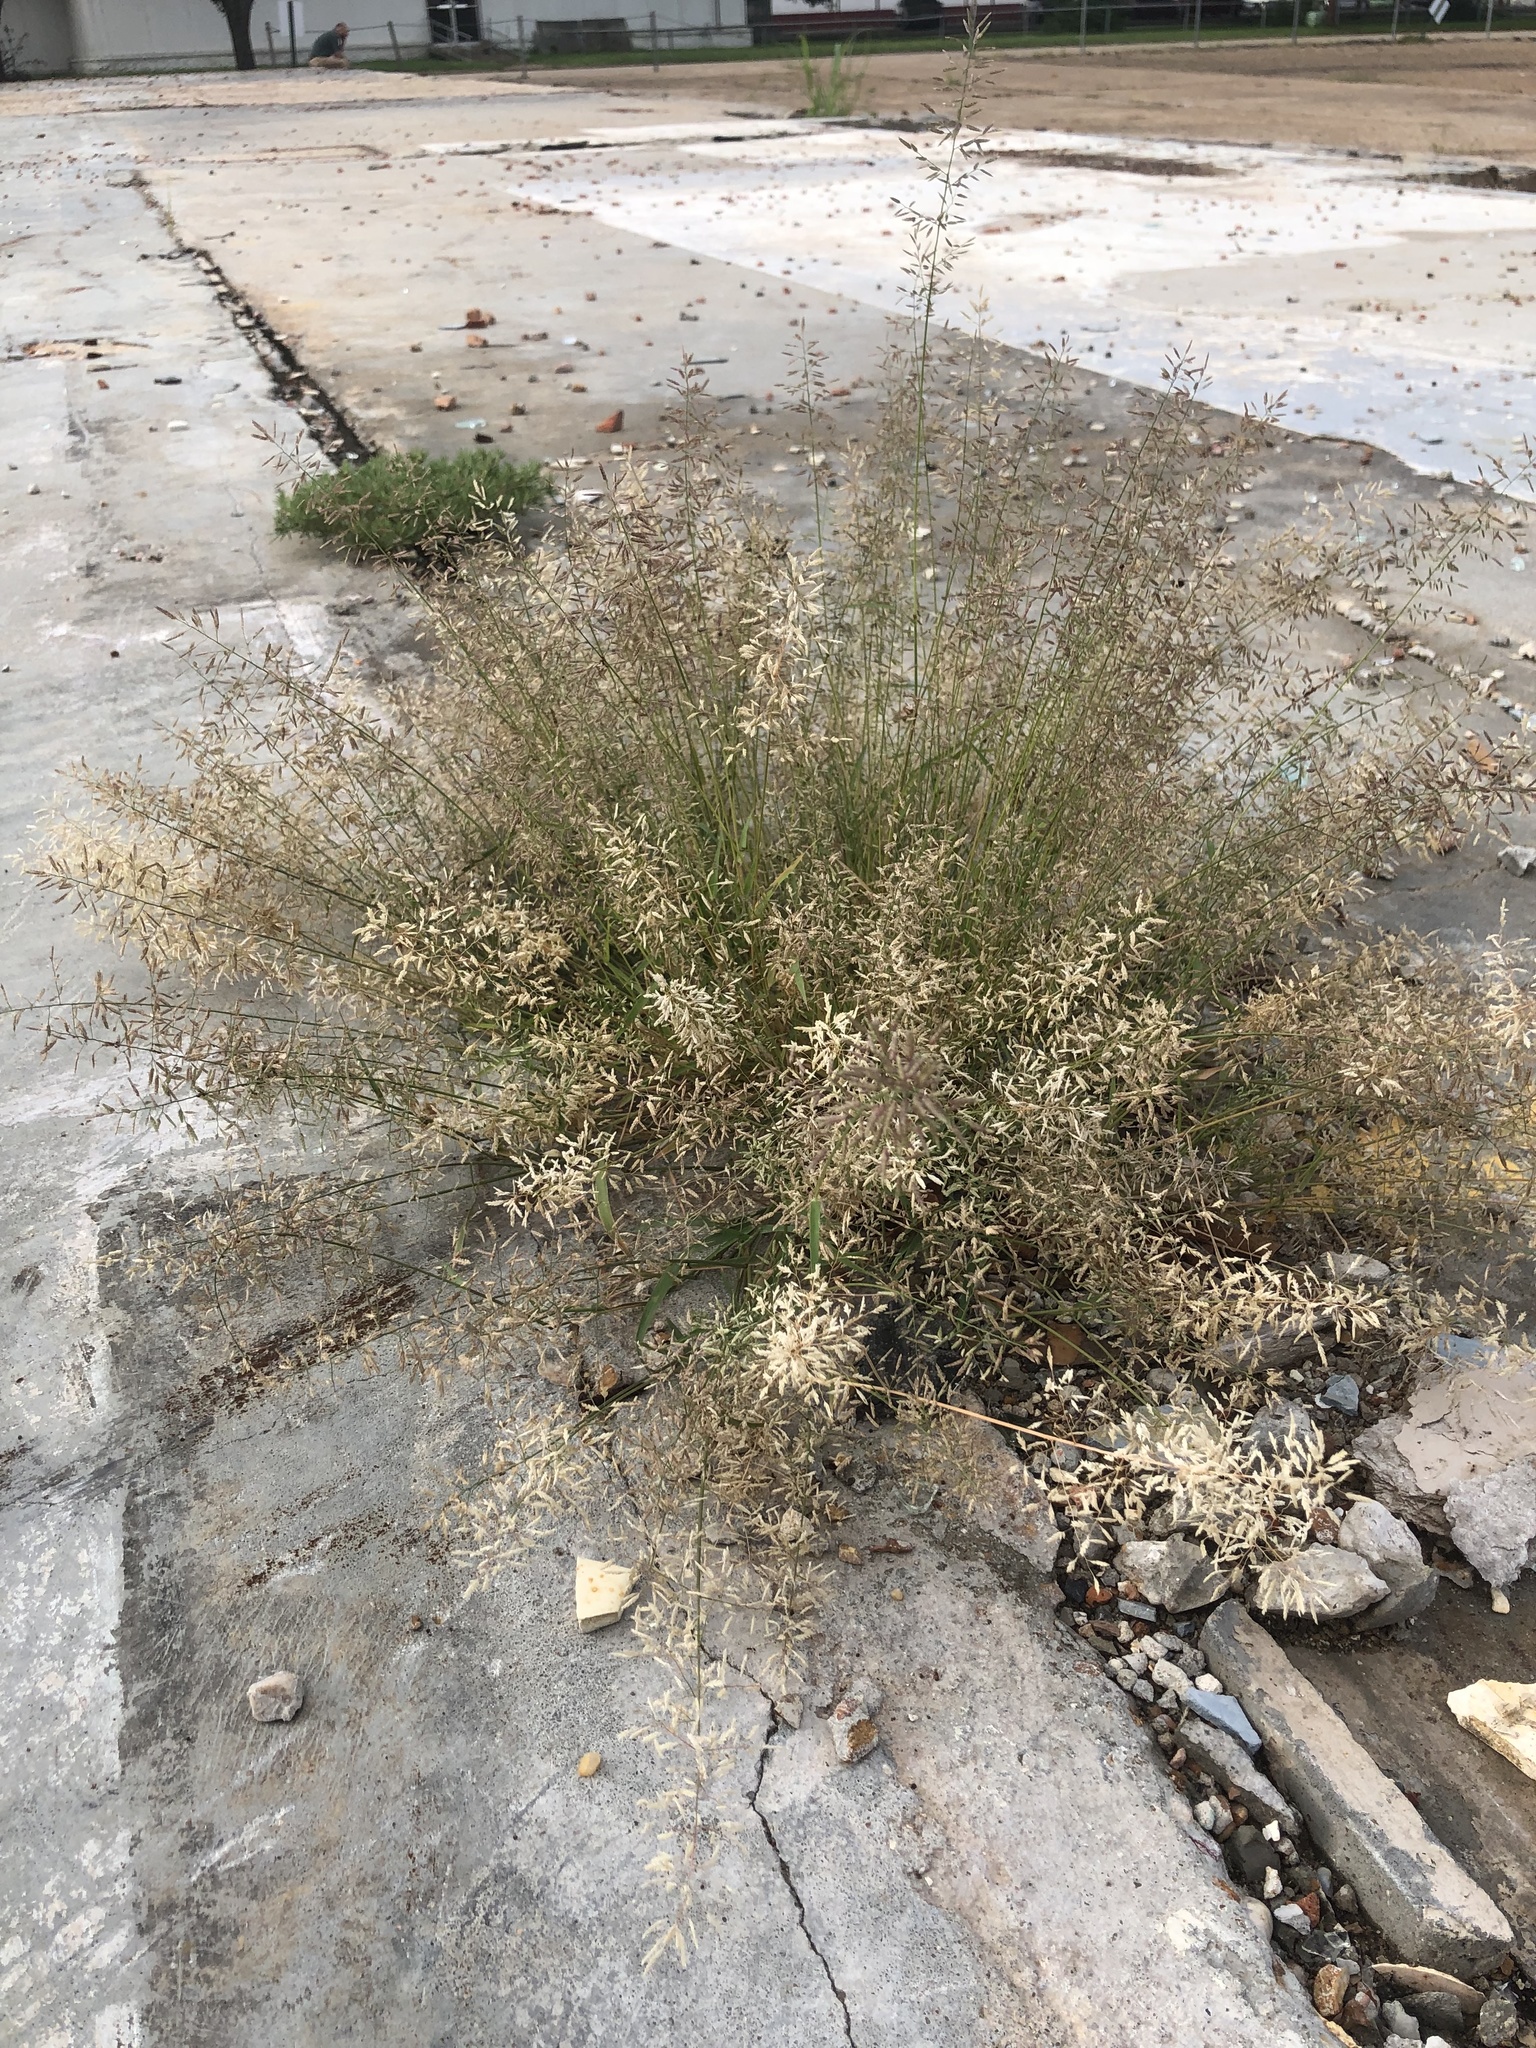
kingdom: Plantae
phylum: Tracheophyta
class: Liliopsida
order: Poales
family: Poaceae
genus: Eragrostis
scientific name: Eragrostis minor
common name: Small love-grass
